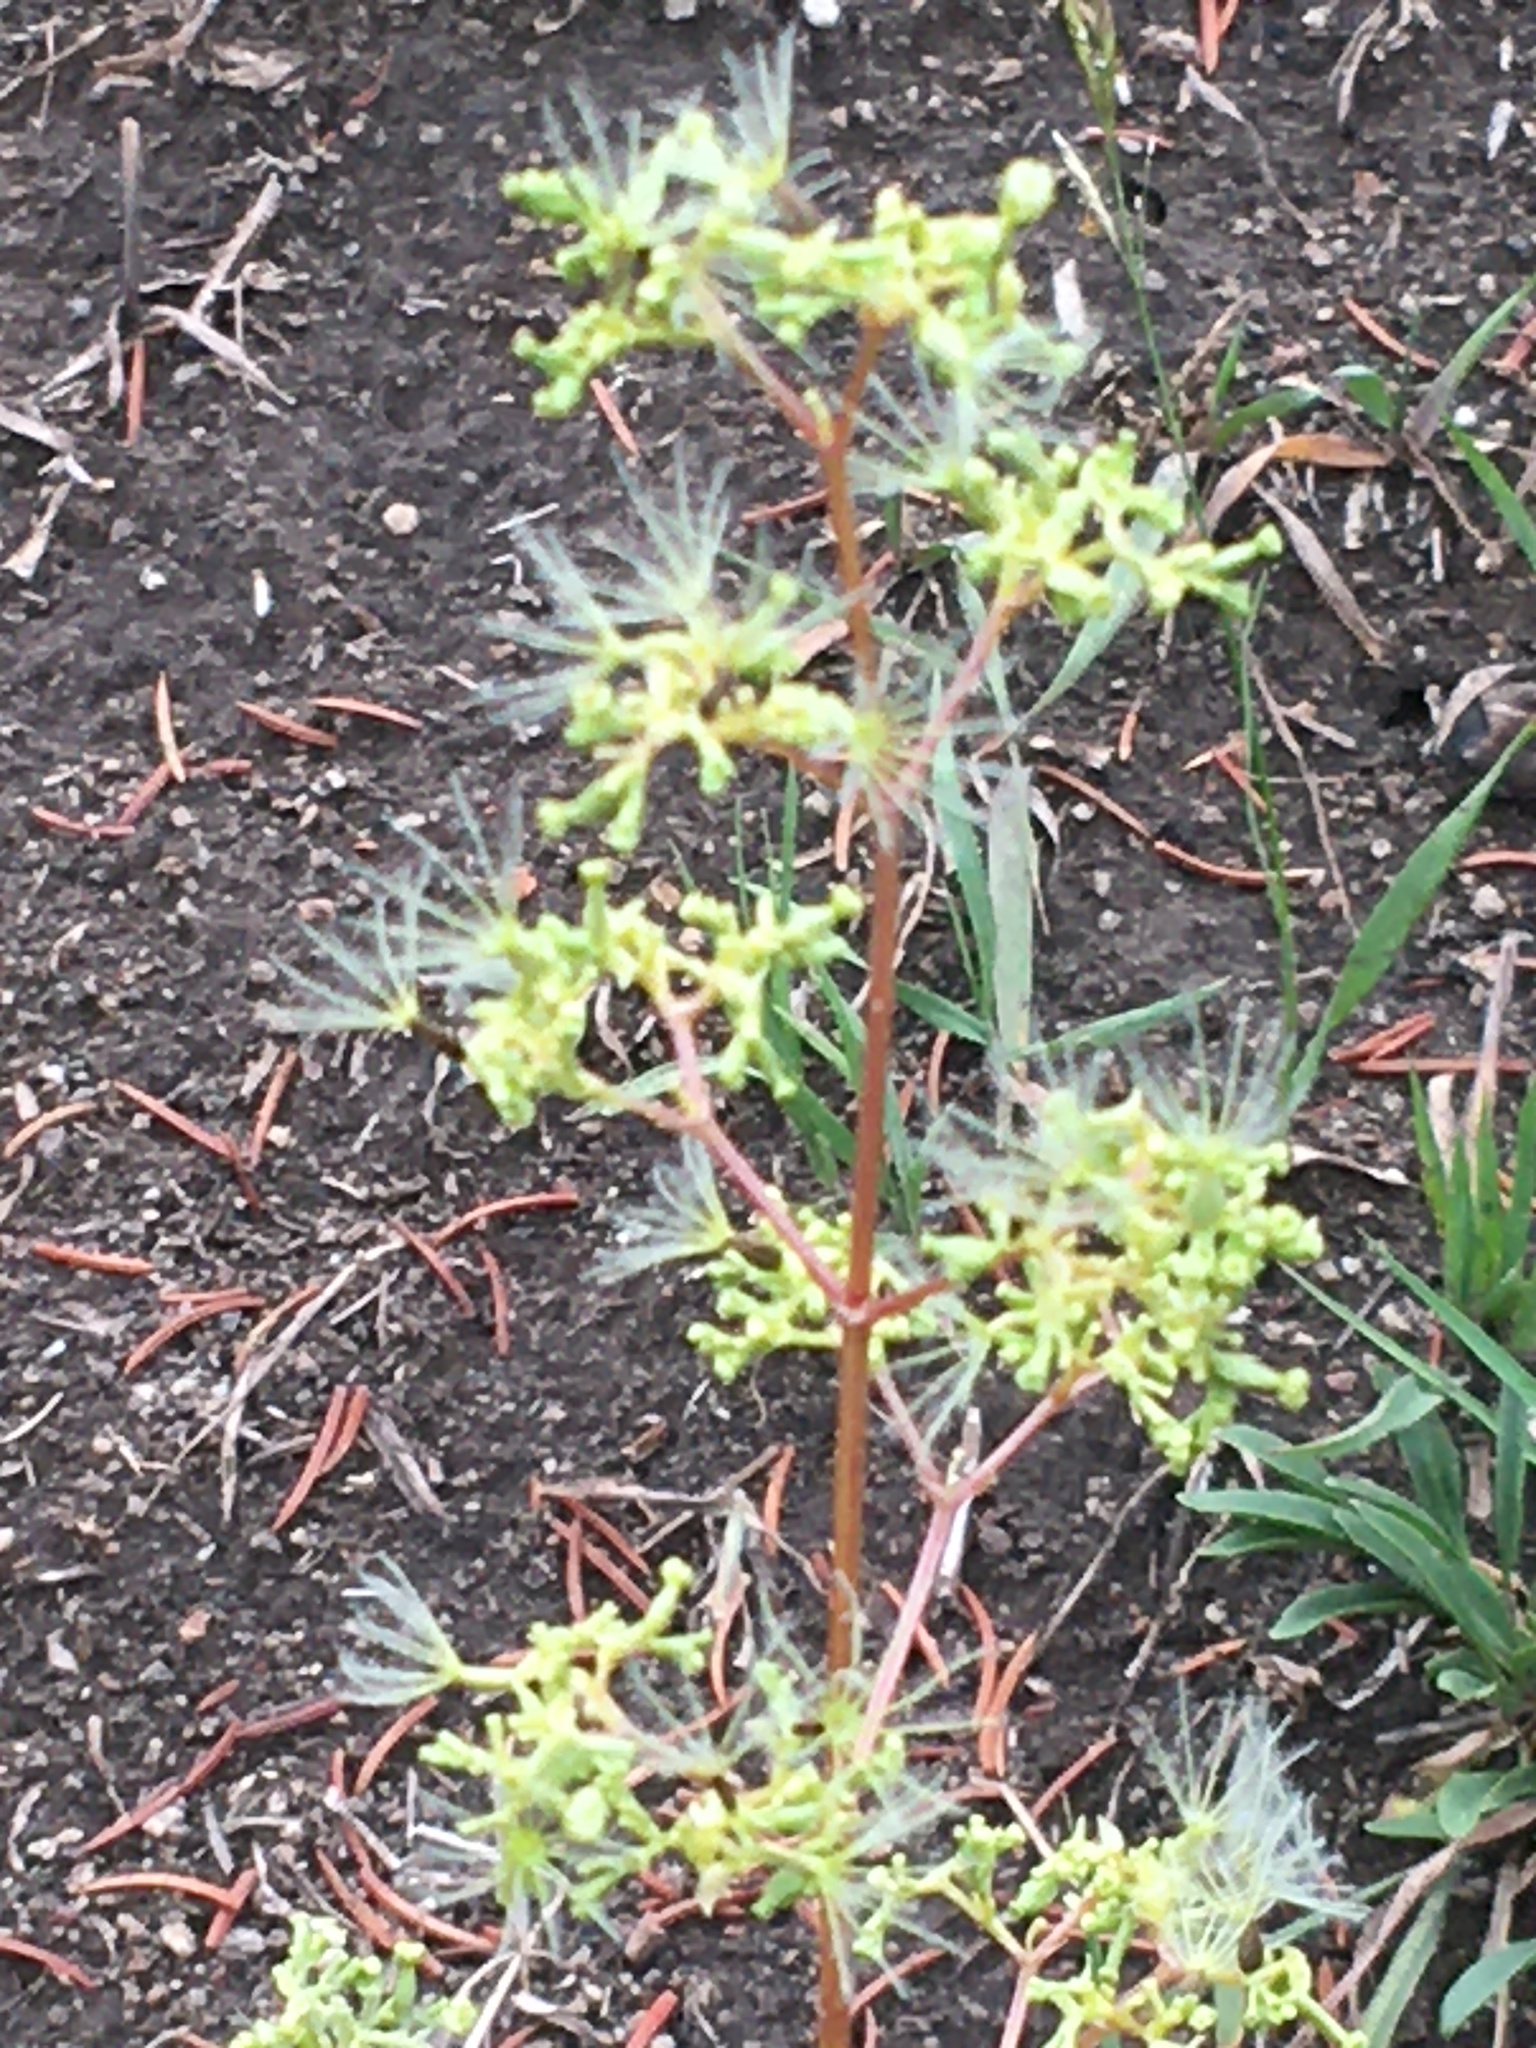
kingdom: Plantae
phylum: Tracheophyta
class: Magnoliopsida
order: Dipsacales
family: Caprifoliaceae
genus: Valeriana
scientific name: Valeriana edulis
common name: Taproot valerian
